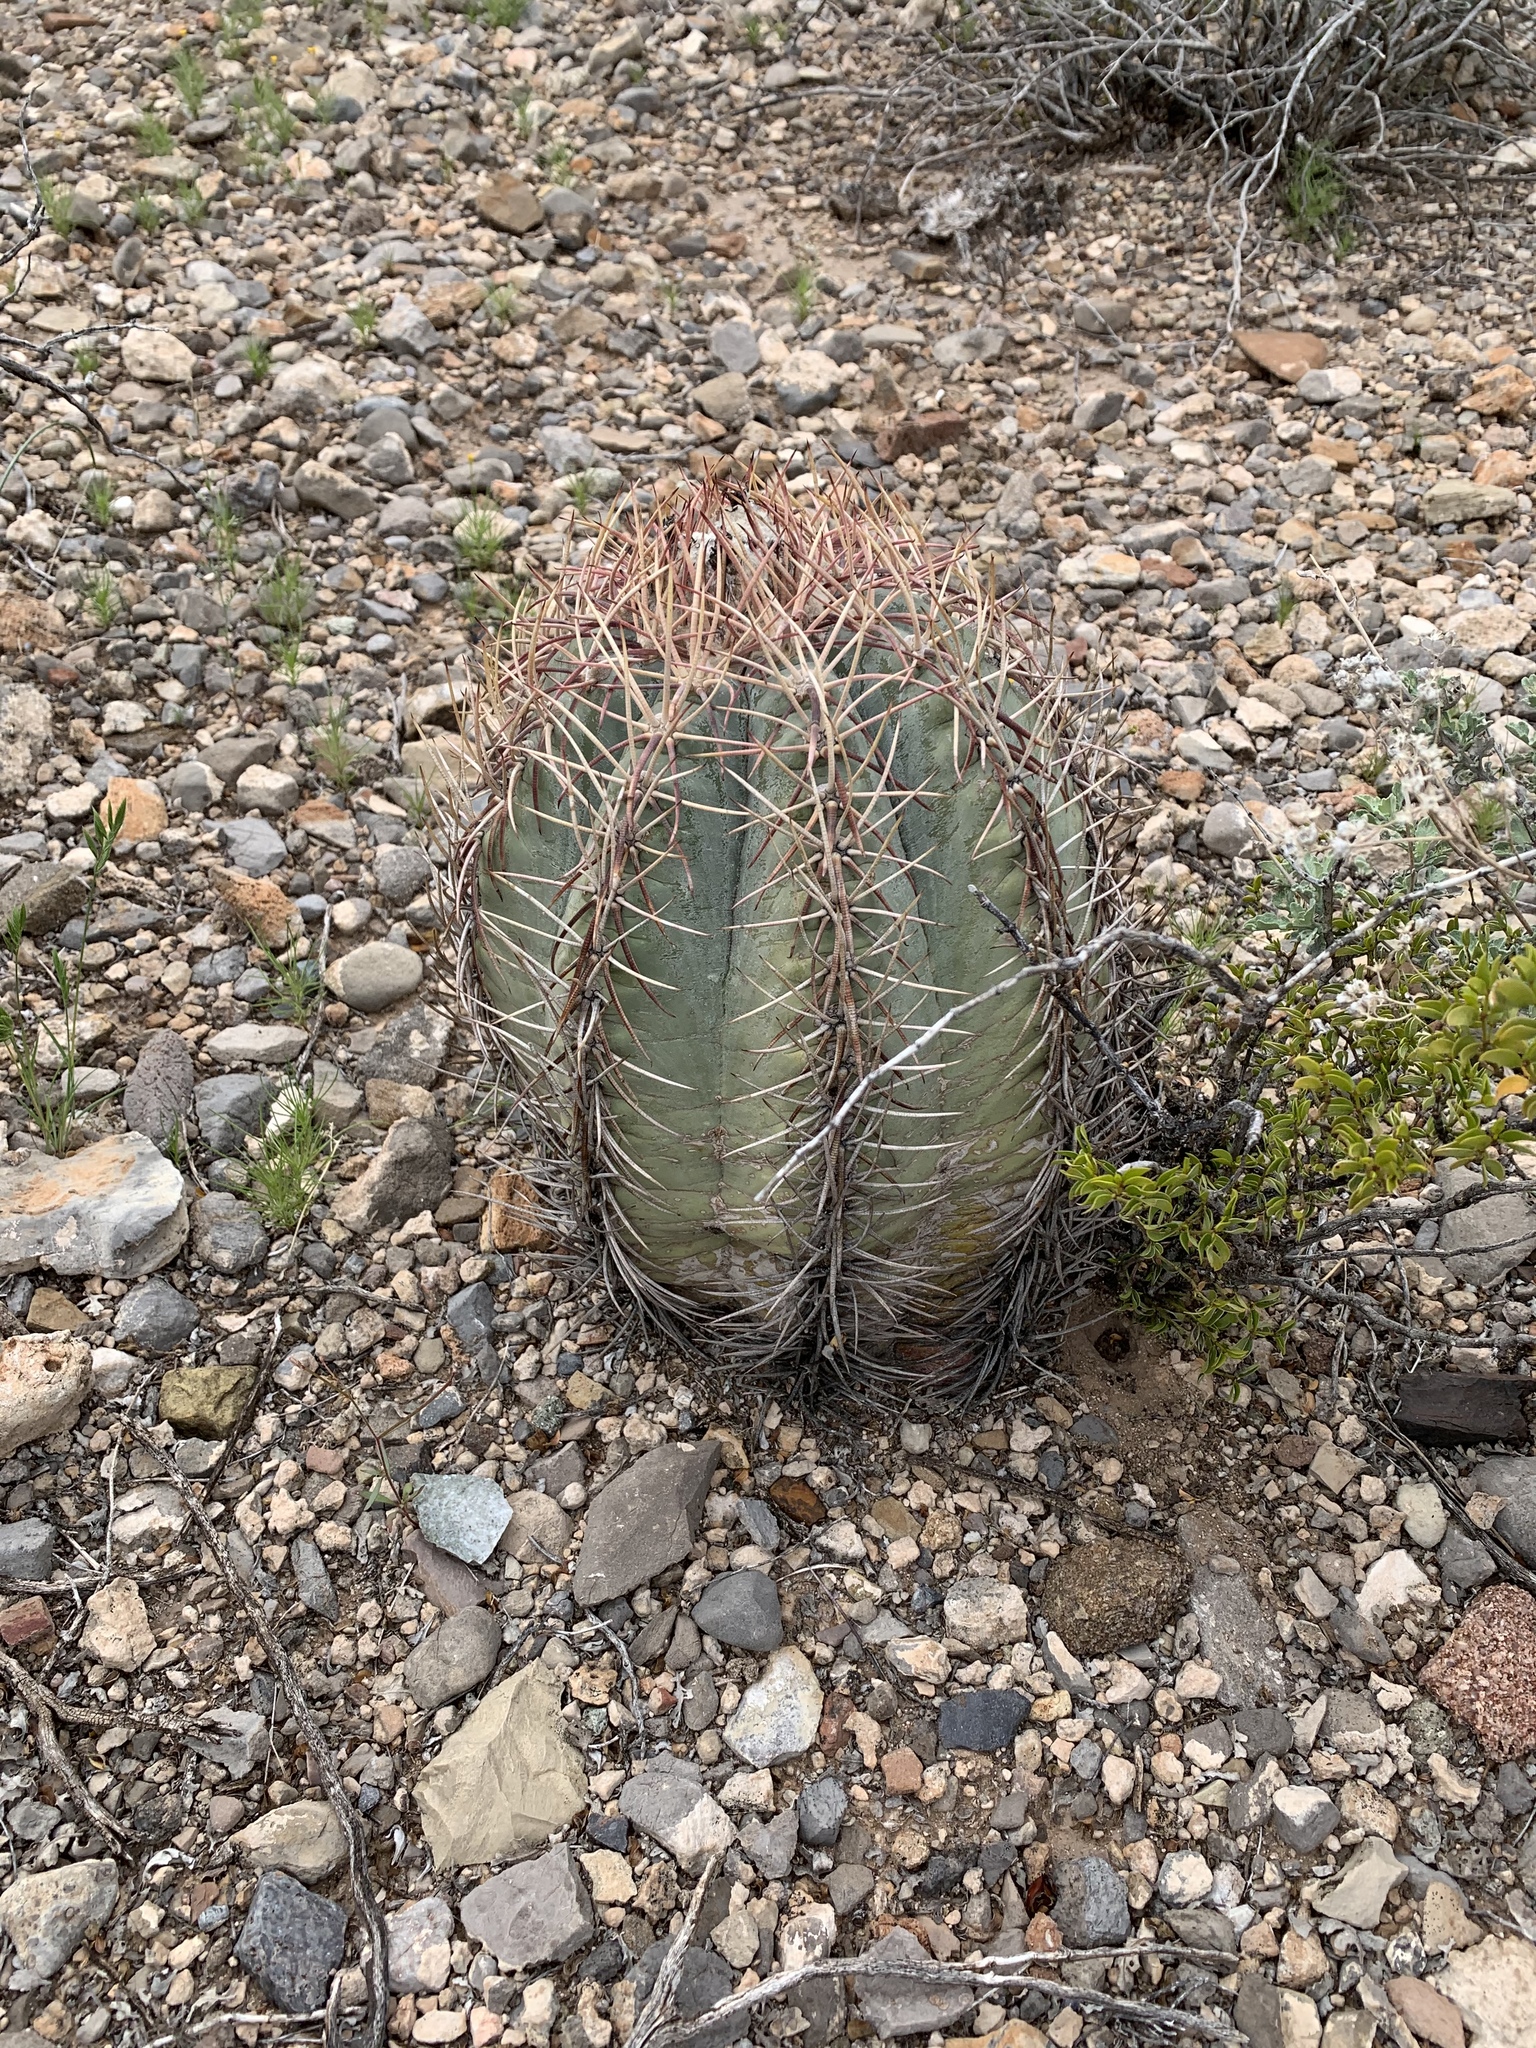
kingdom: Plantae
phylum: Tracheophyta
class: Magnoliopsida
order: Caryophyllales
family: Cactaceae
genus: Echinocactus
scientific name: Echinocactus horizonthalonius
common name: Devilshead
